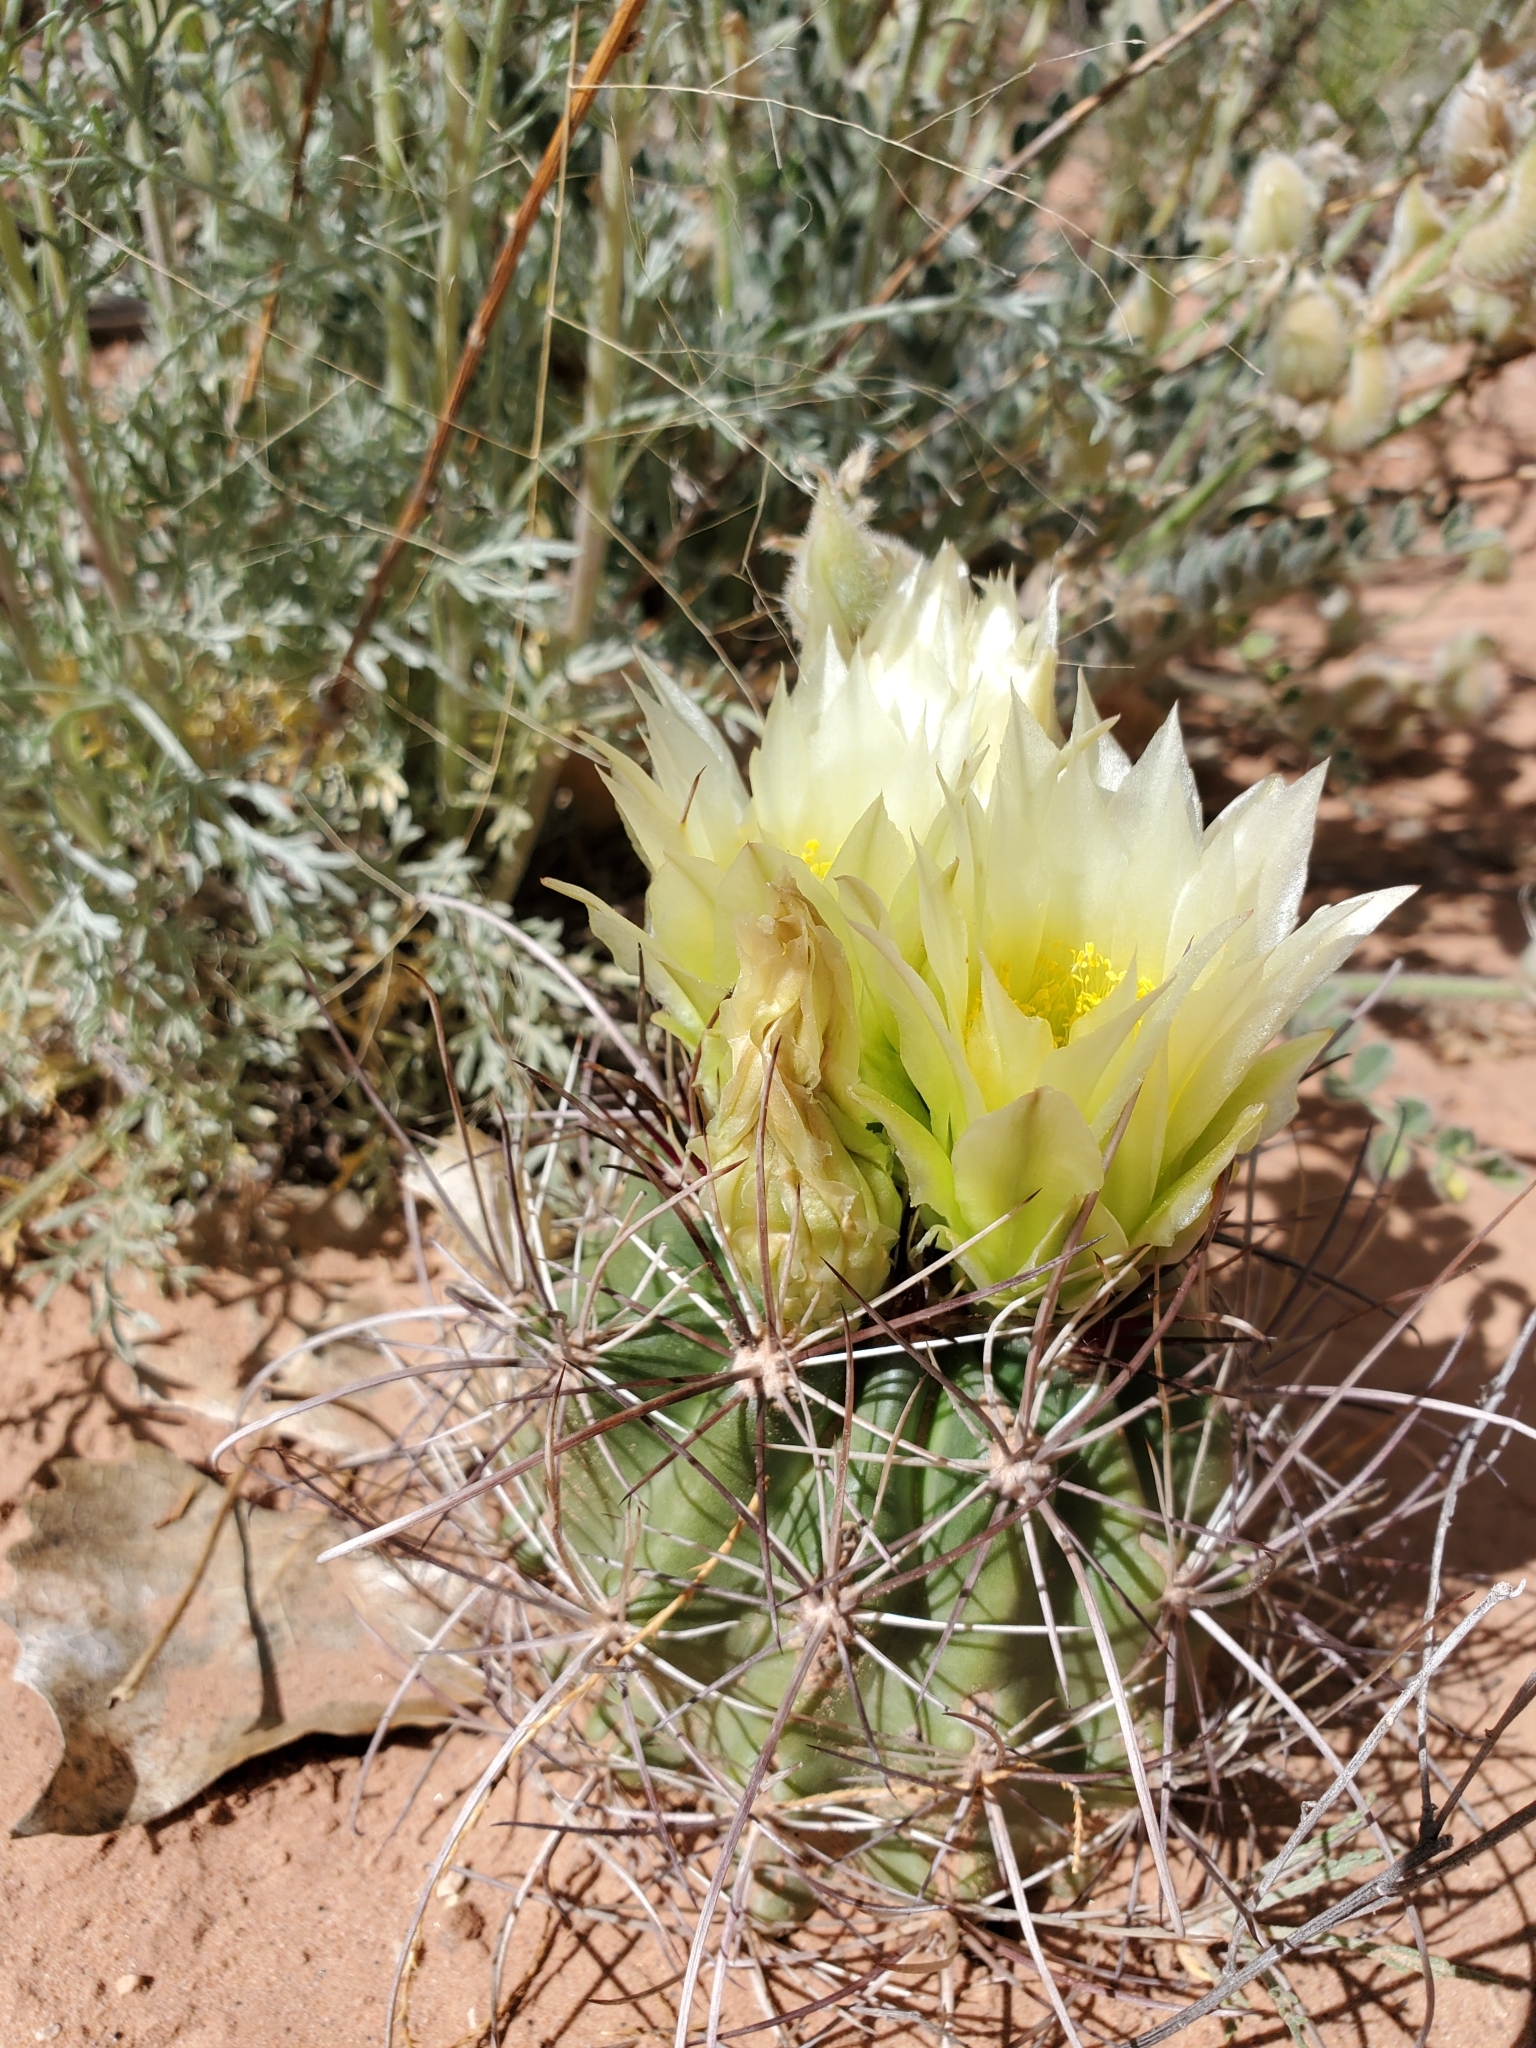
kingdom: Plantae
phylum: Tracheophyta
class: Magnoliopsida
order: Caryophyllales
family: Cactaceae
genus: Sclerocactus
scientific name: Sclerocactus parviflorus
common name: Small-flower fishhook cactus
